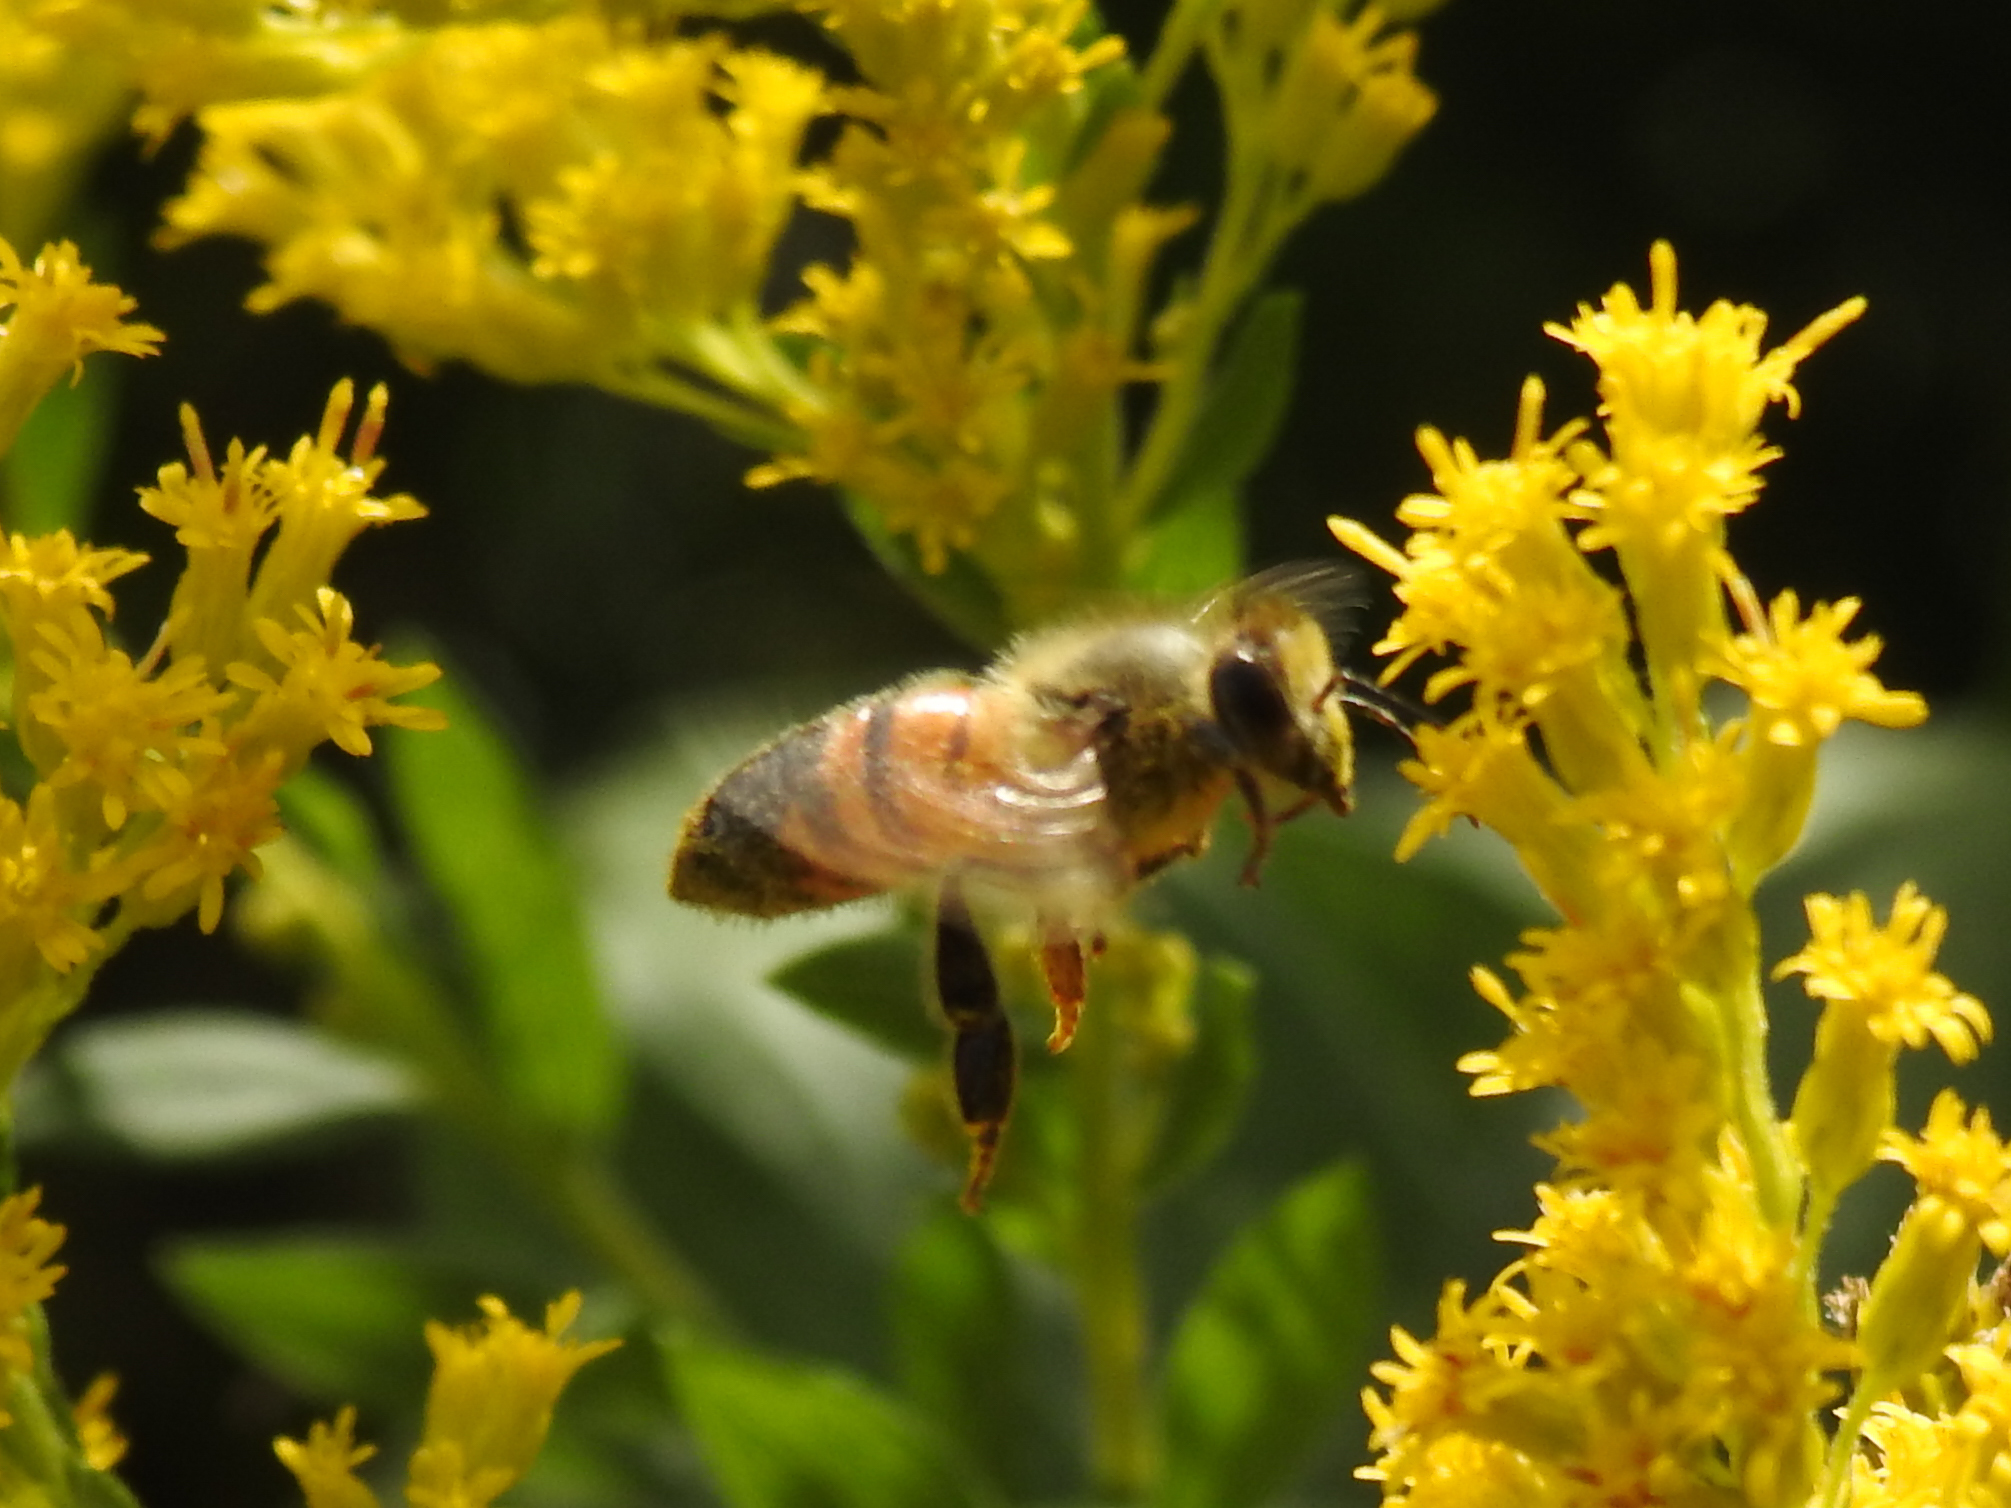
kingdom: Animalia
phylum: Arthropoda
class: Insecta
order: Hymenoptera
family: Apidae
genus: Apis
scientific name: Apis mellifera
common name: Honey bee
